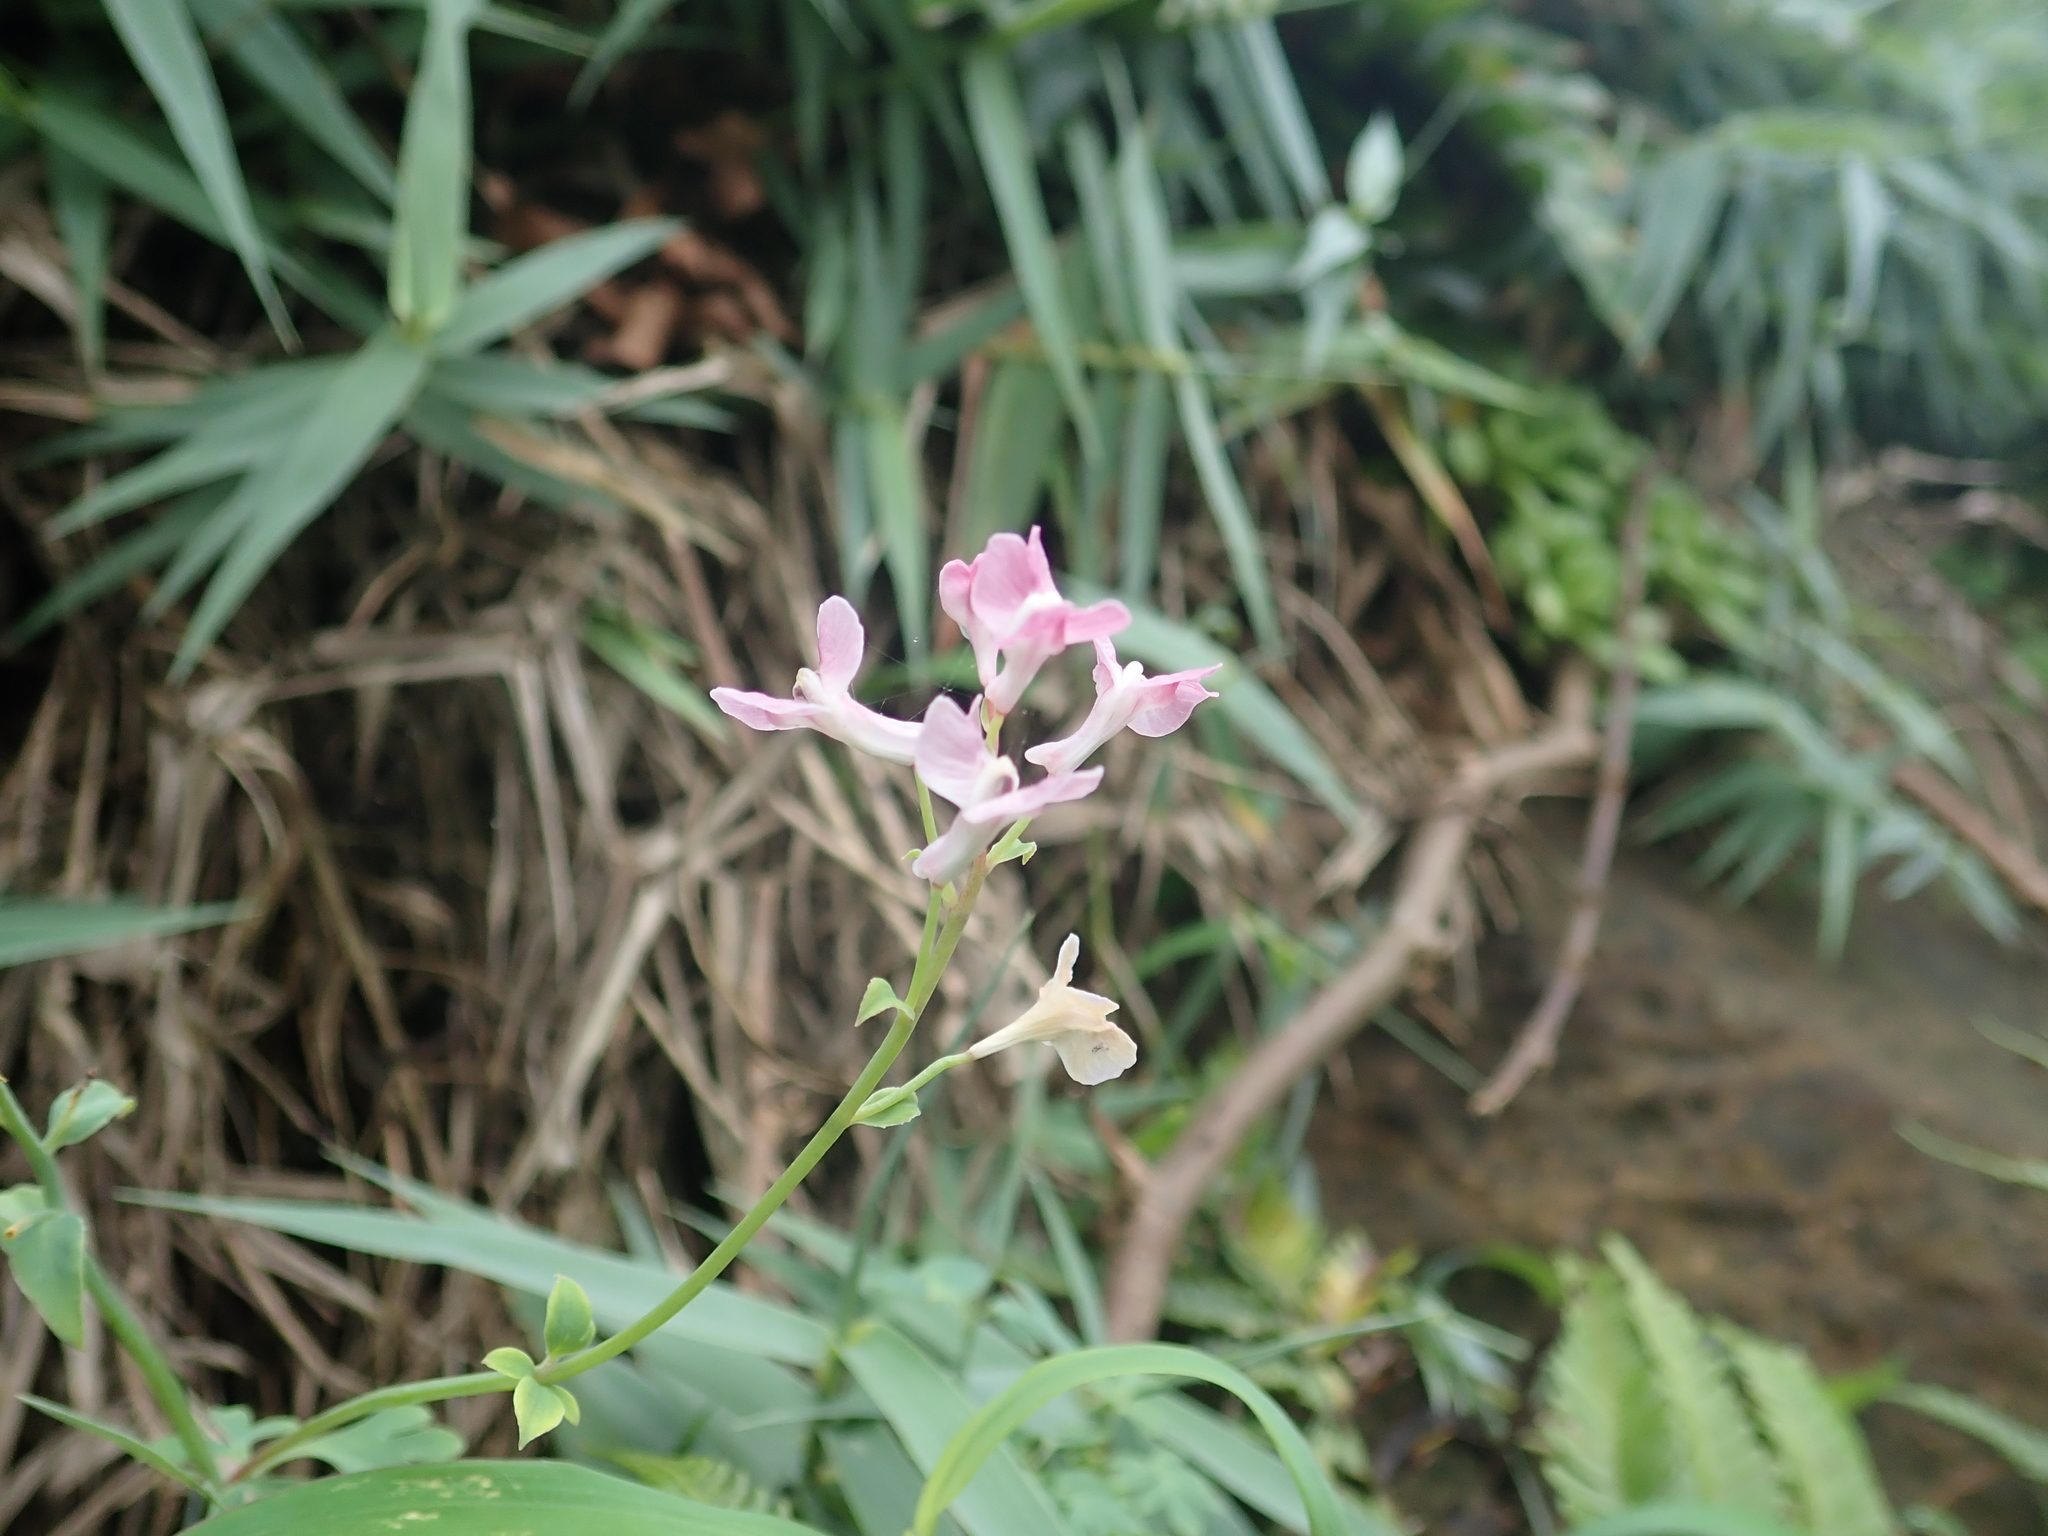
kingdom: Plantae
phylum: Tracheophyta
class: Magnoliopsida
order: Ranunculales
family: Papaveraceae
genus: Corydalis
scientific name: Corydalis decumbens
